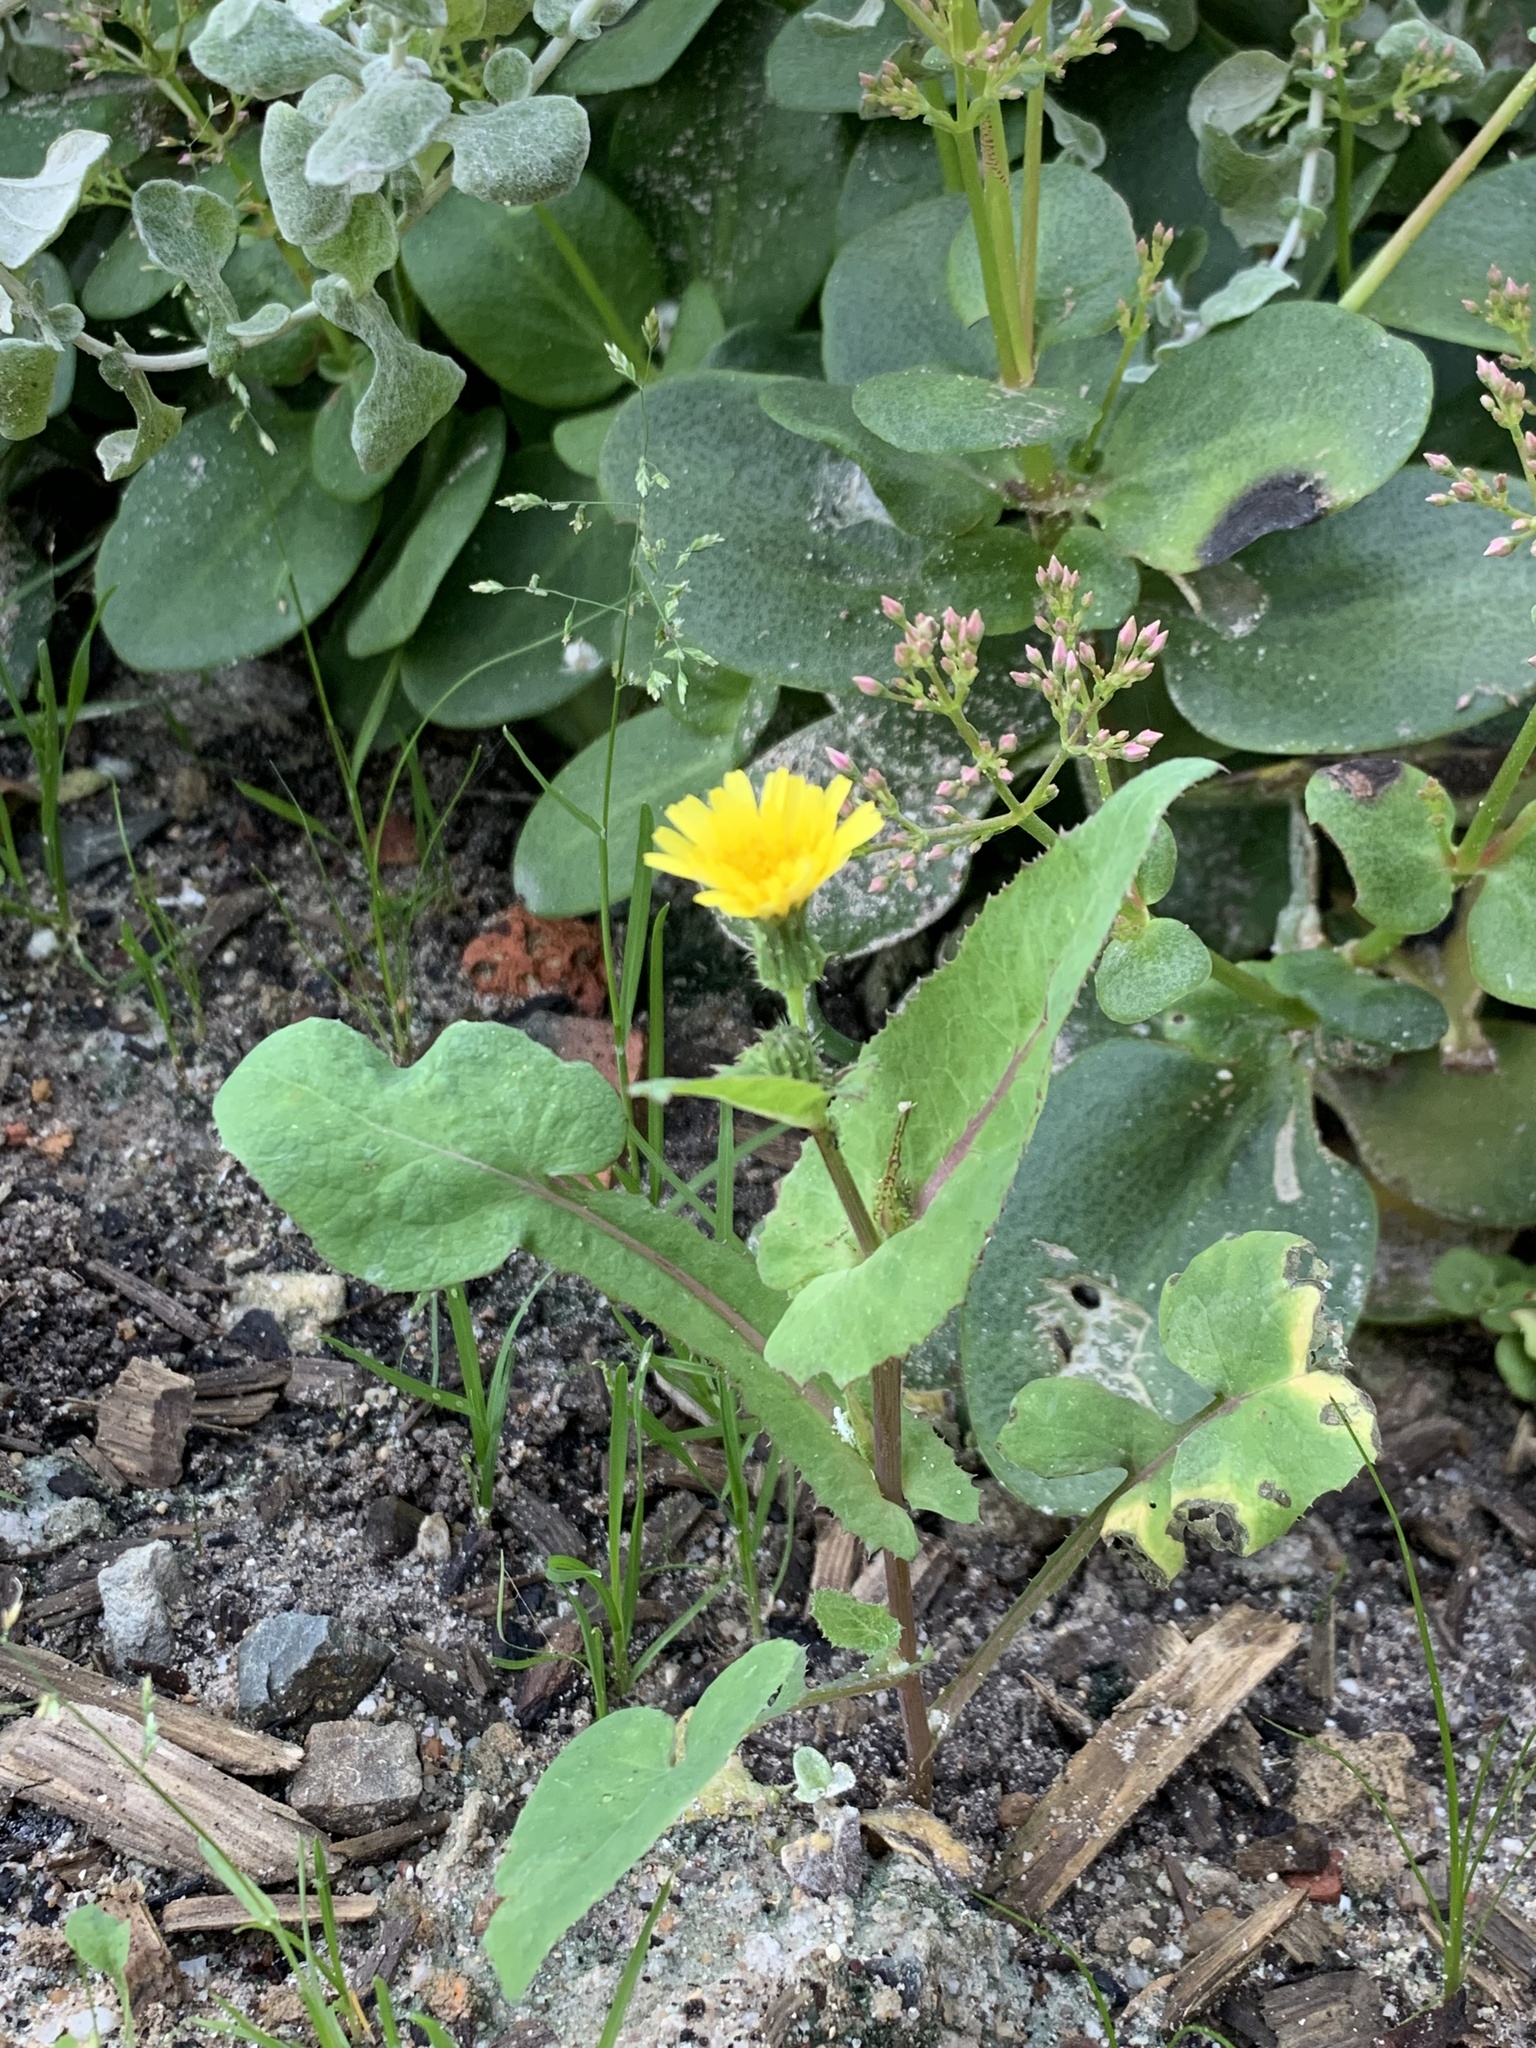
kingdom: Plantae
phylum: Tracheophyta
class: Magnoliopsida
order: Asterales
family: Asteraceae
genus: Sonchus
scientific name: Sonchus oleraceus
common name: Common sowthistle
